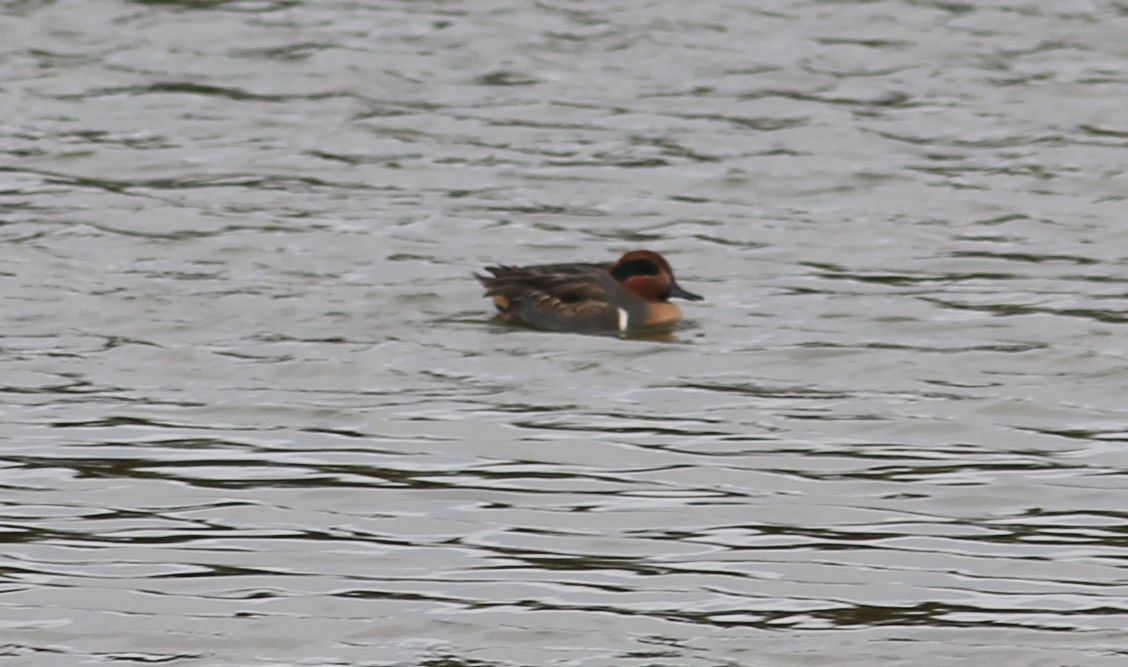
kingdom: Animalia
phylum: Chordata
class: Aves
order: Anseriformes
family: Anatidae
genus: Anas
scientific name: Anas carolinensis
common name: Green-winged teal
